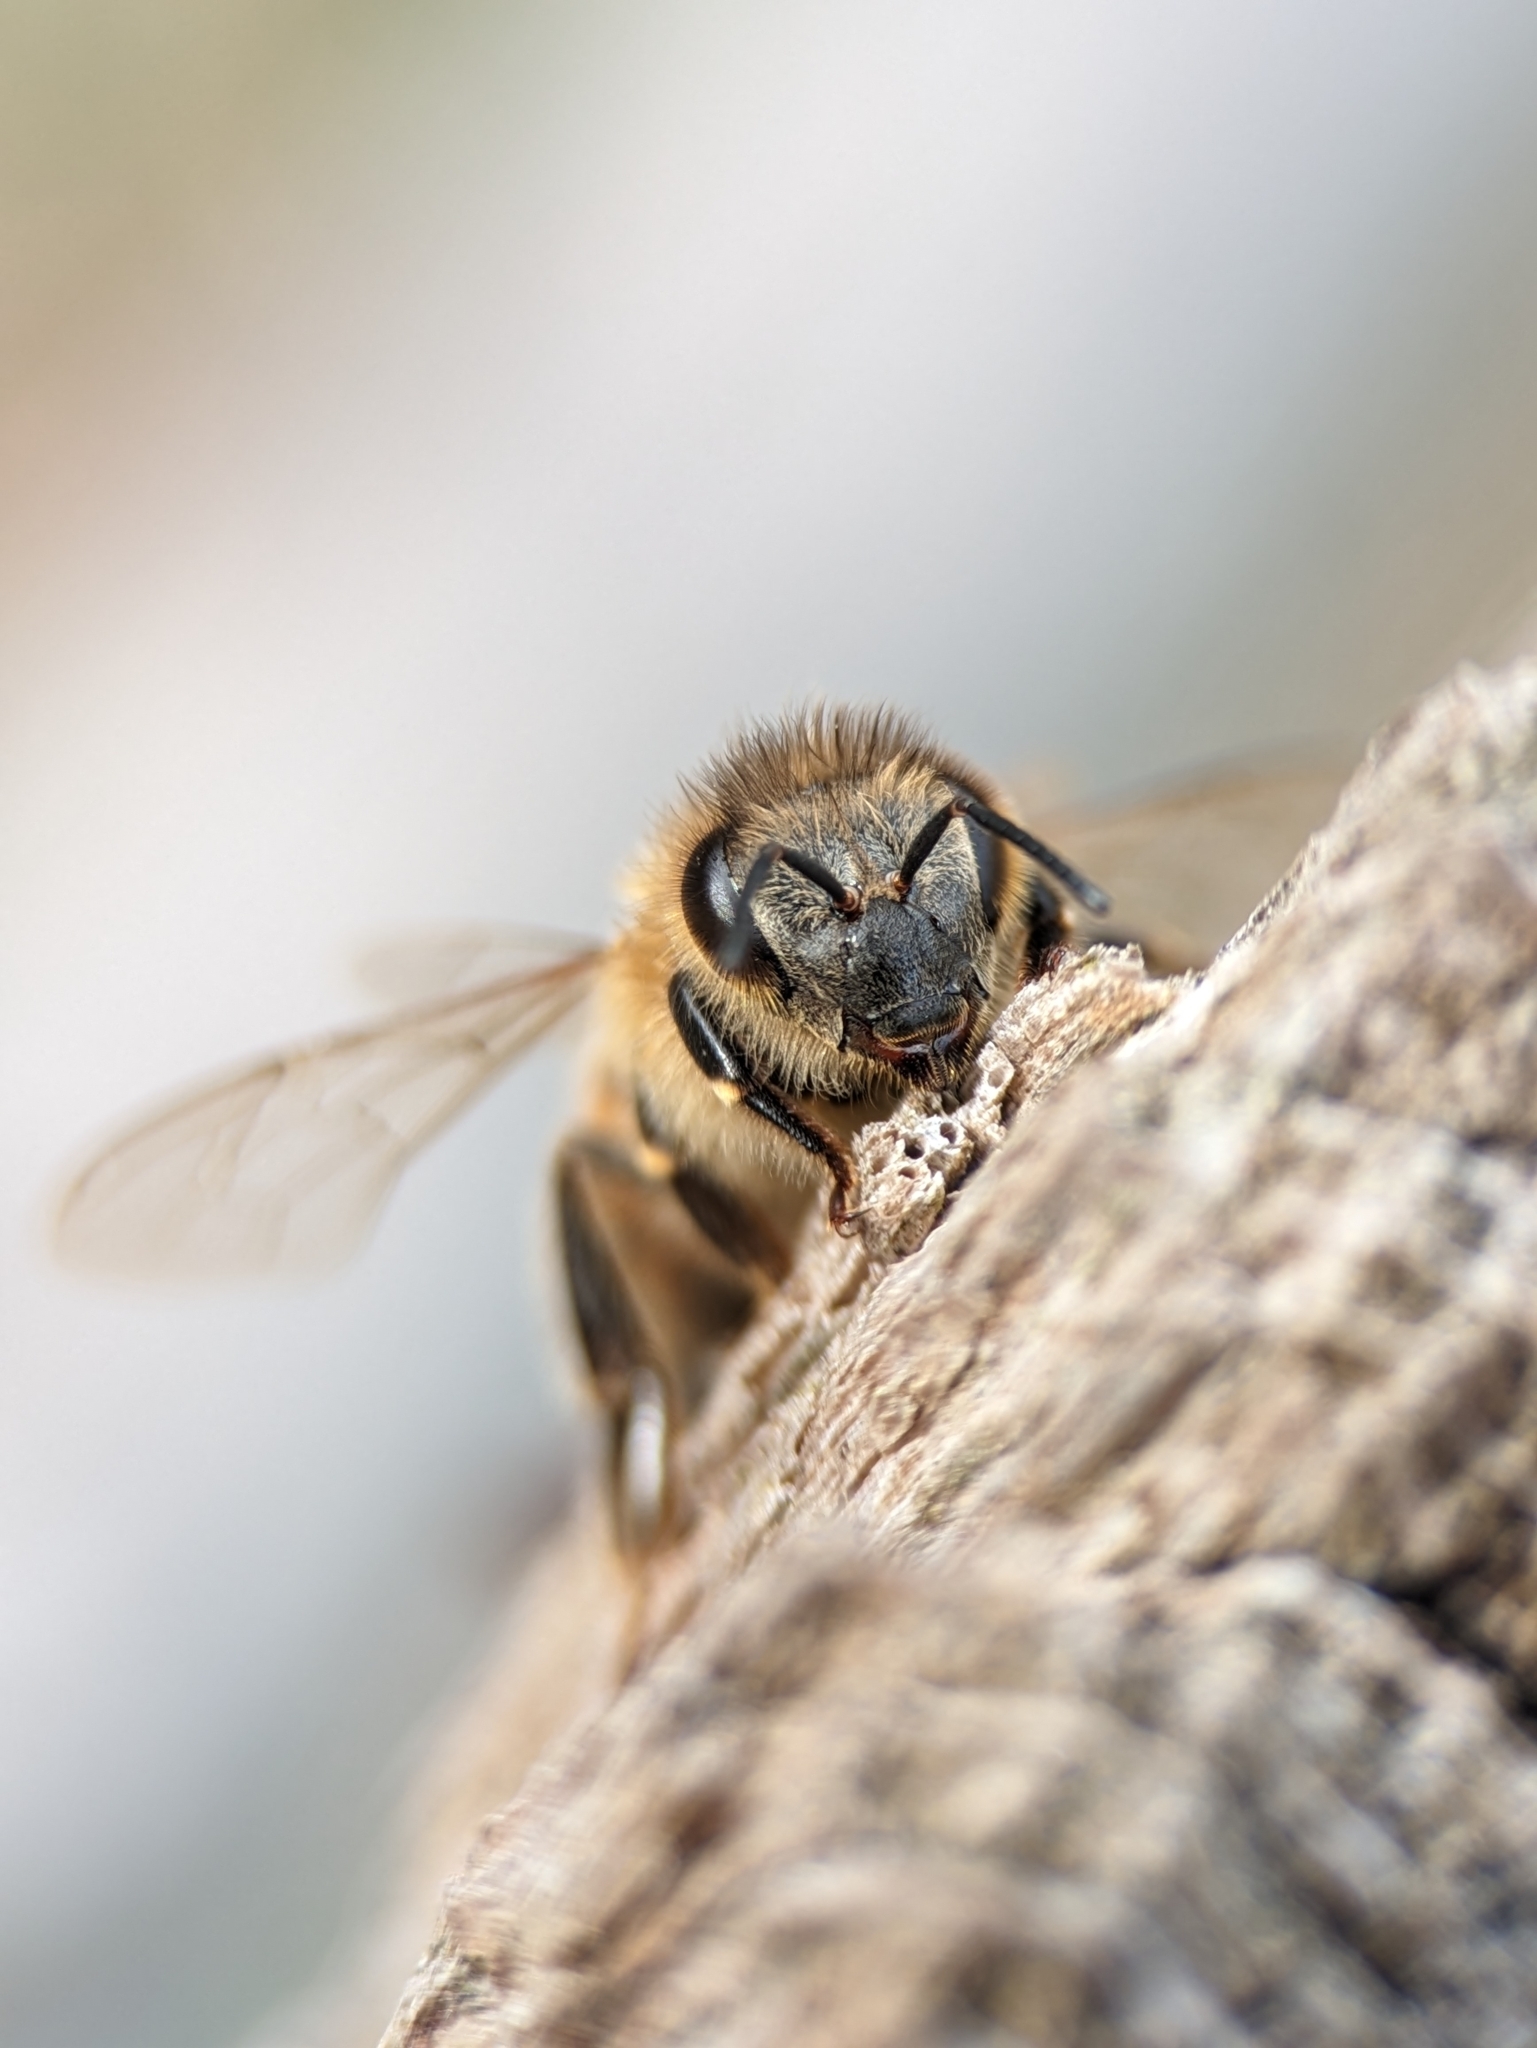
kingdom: Animalia
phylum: Arthropoda
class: Insecta
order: Hymenoptera
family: Apidae
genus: Apis
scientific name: Apis mellifera
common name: Honey bee
